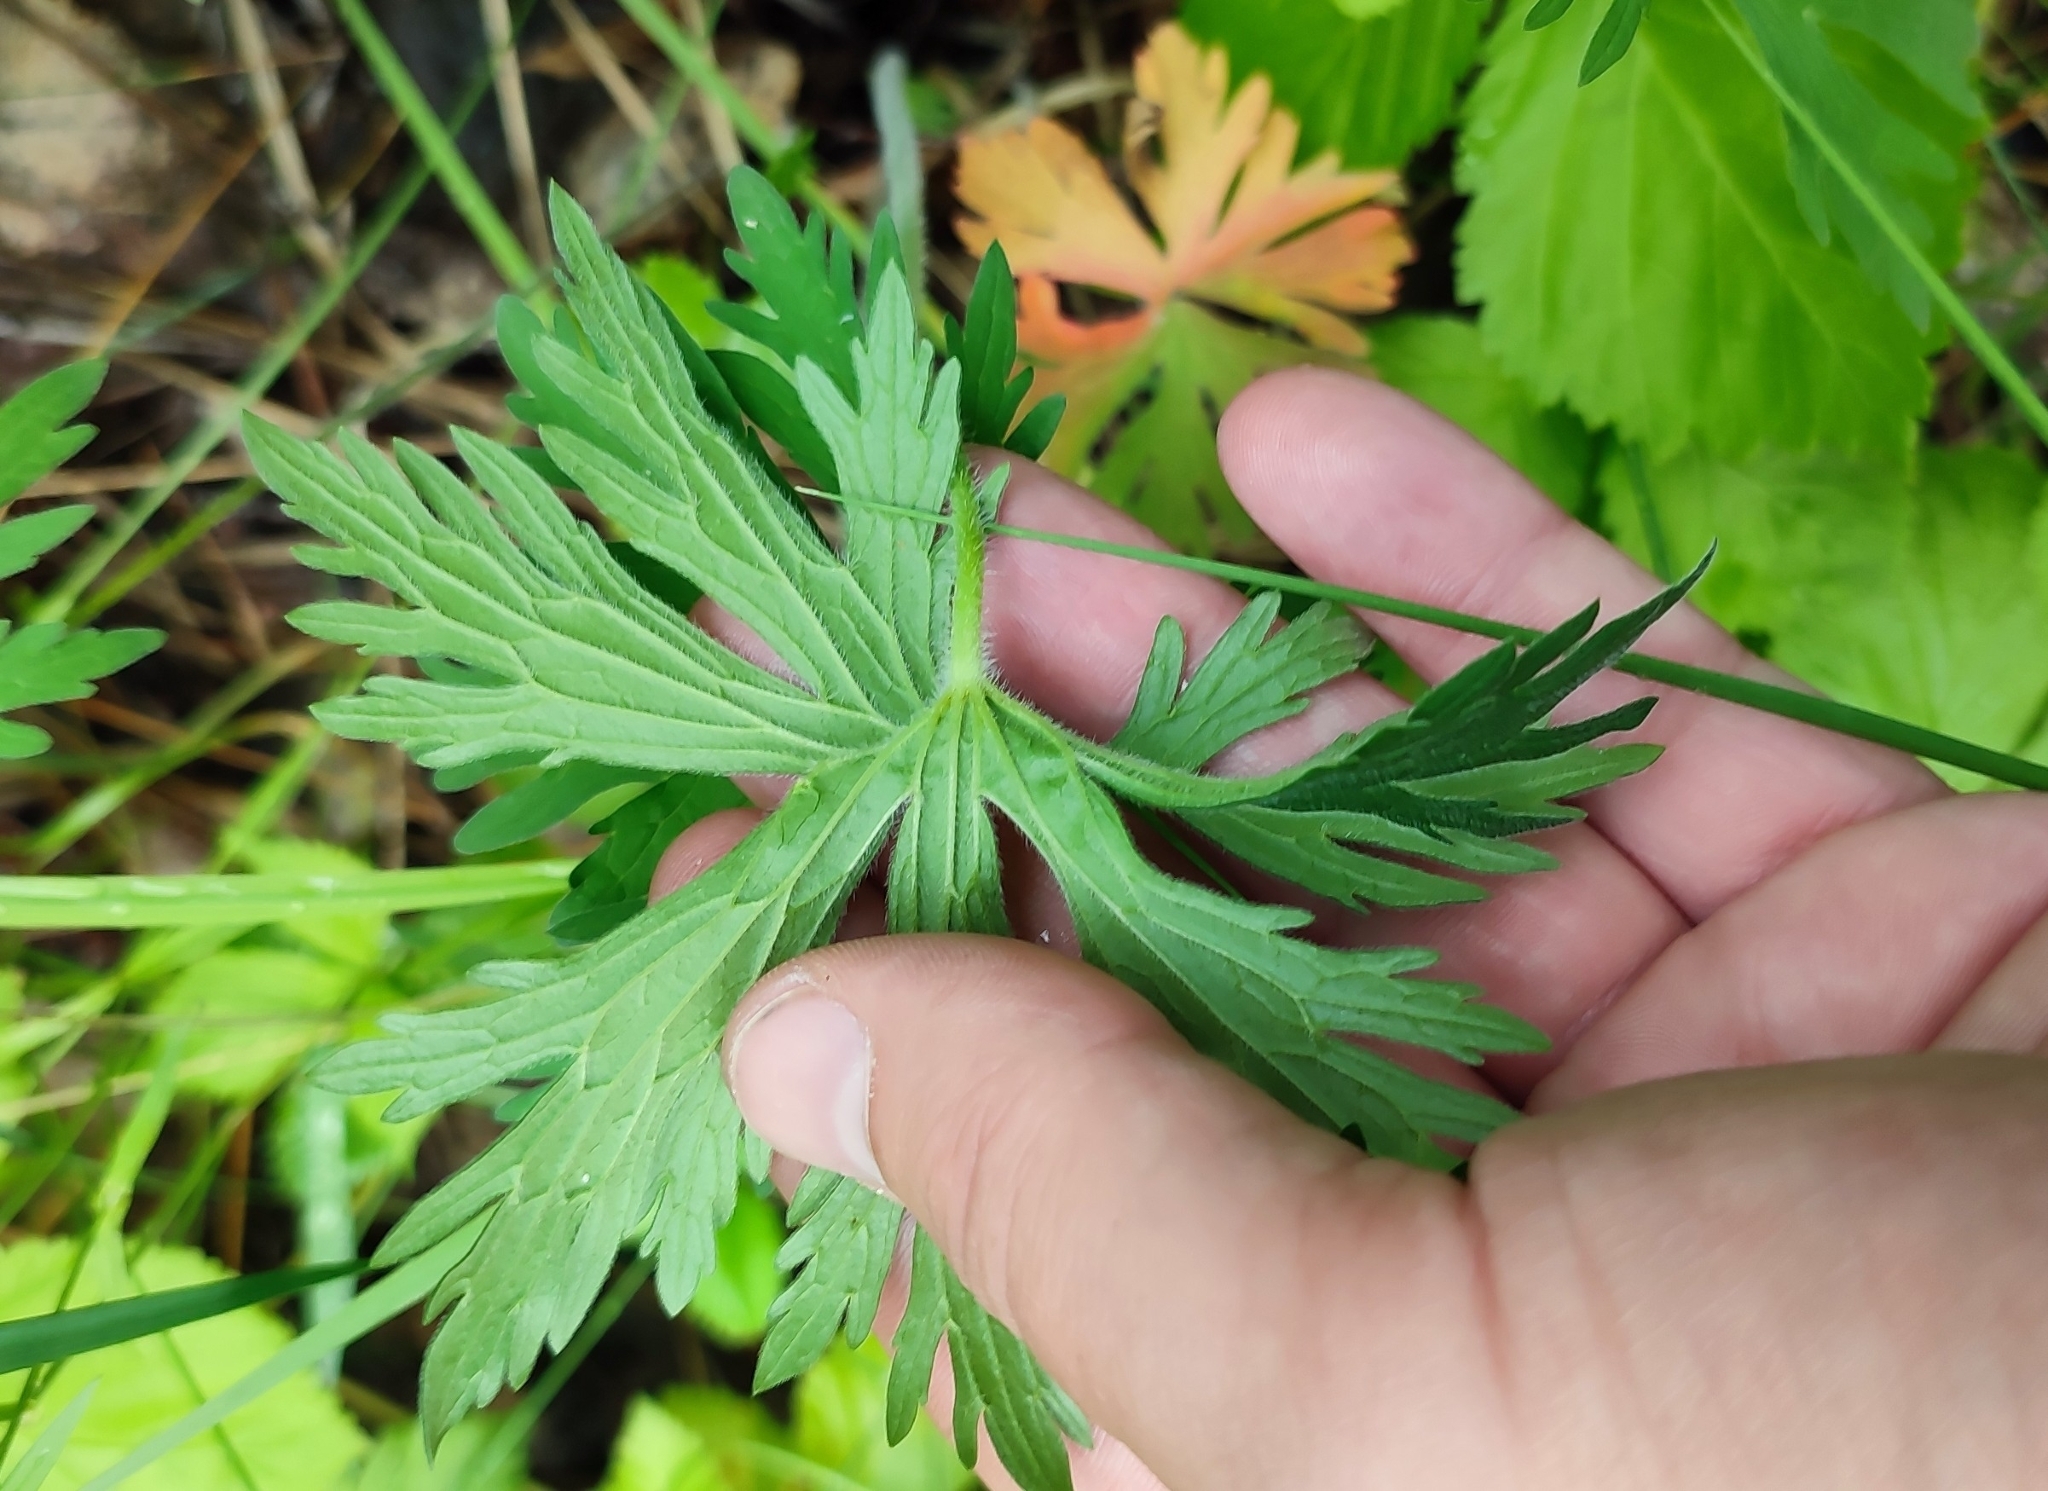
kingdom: Plantae
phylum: Tracheophyta
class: Magnoliopsida
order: Geraniales
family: Geraniaceae
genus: Geranium
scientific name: Geranium pratense
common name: Meadow crane's-bill
